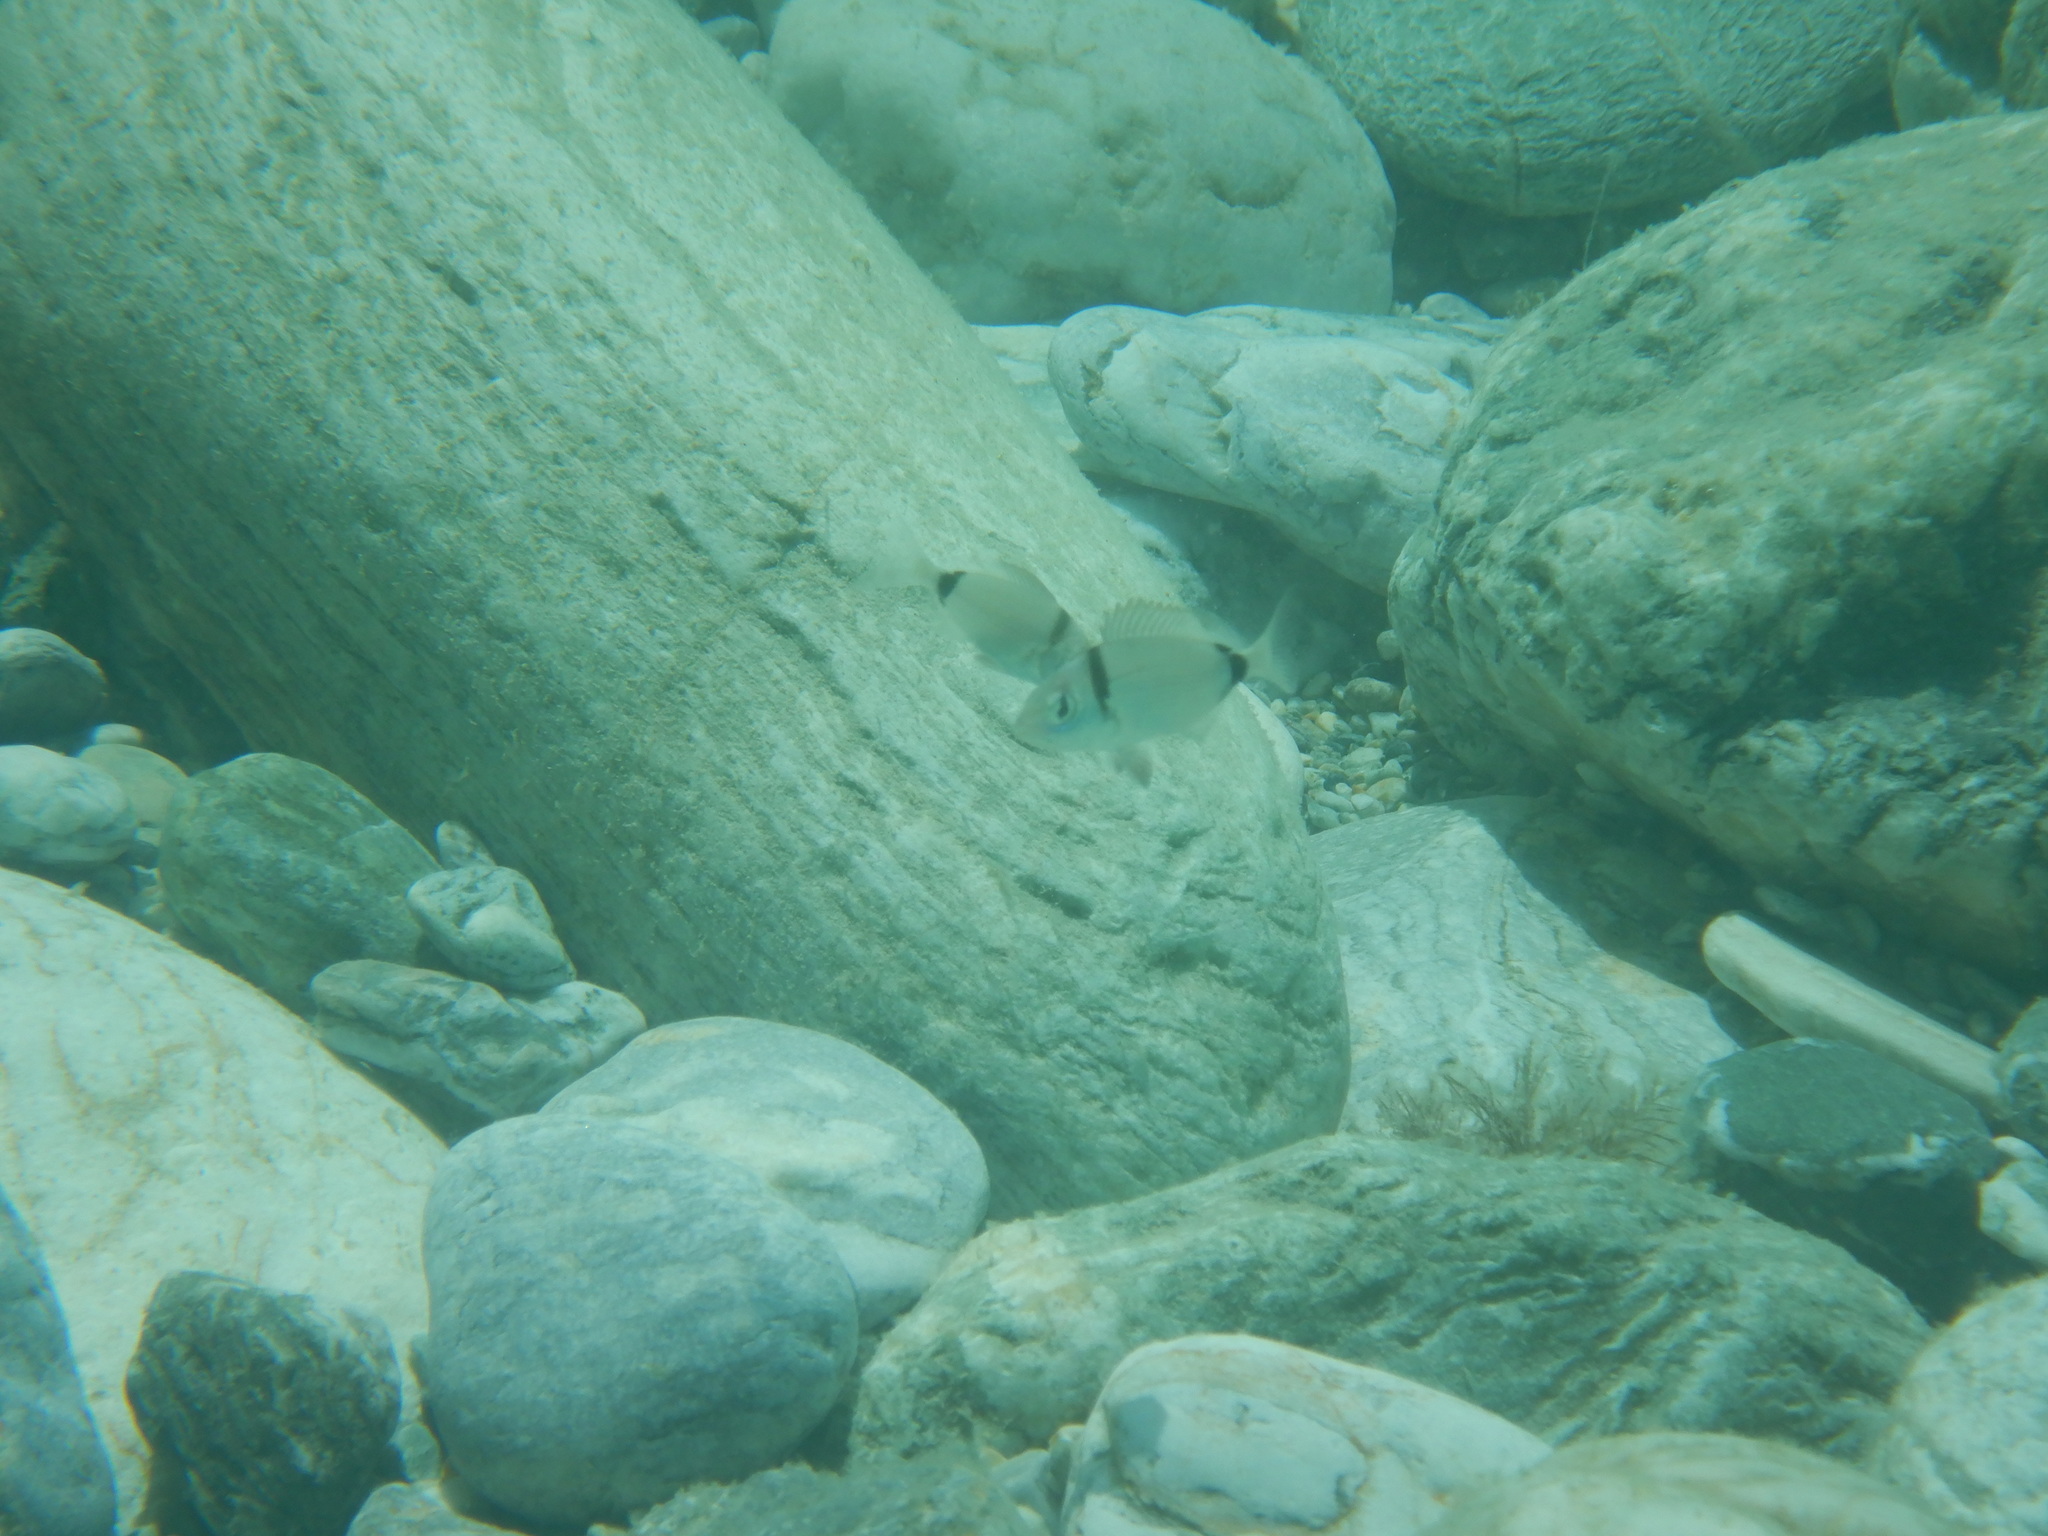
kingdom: Animalia
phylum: Chordata
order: Perciformes
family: Sparidae
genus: Diplodus
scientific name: Diplodus vulgaris
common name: Common two-banded seabream
